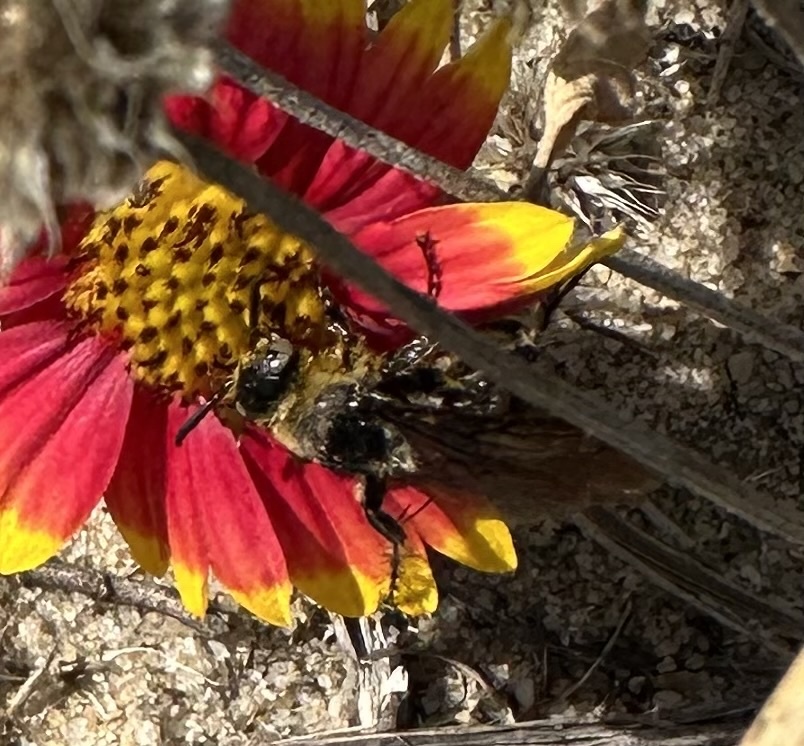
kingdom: Animalia
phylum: Arthropoda
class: Insecta
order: Hymenoptera
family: Scoliidae
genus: Dielis
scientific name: Dielis
